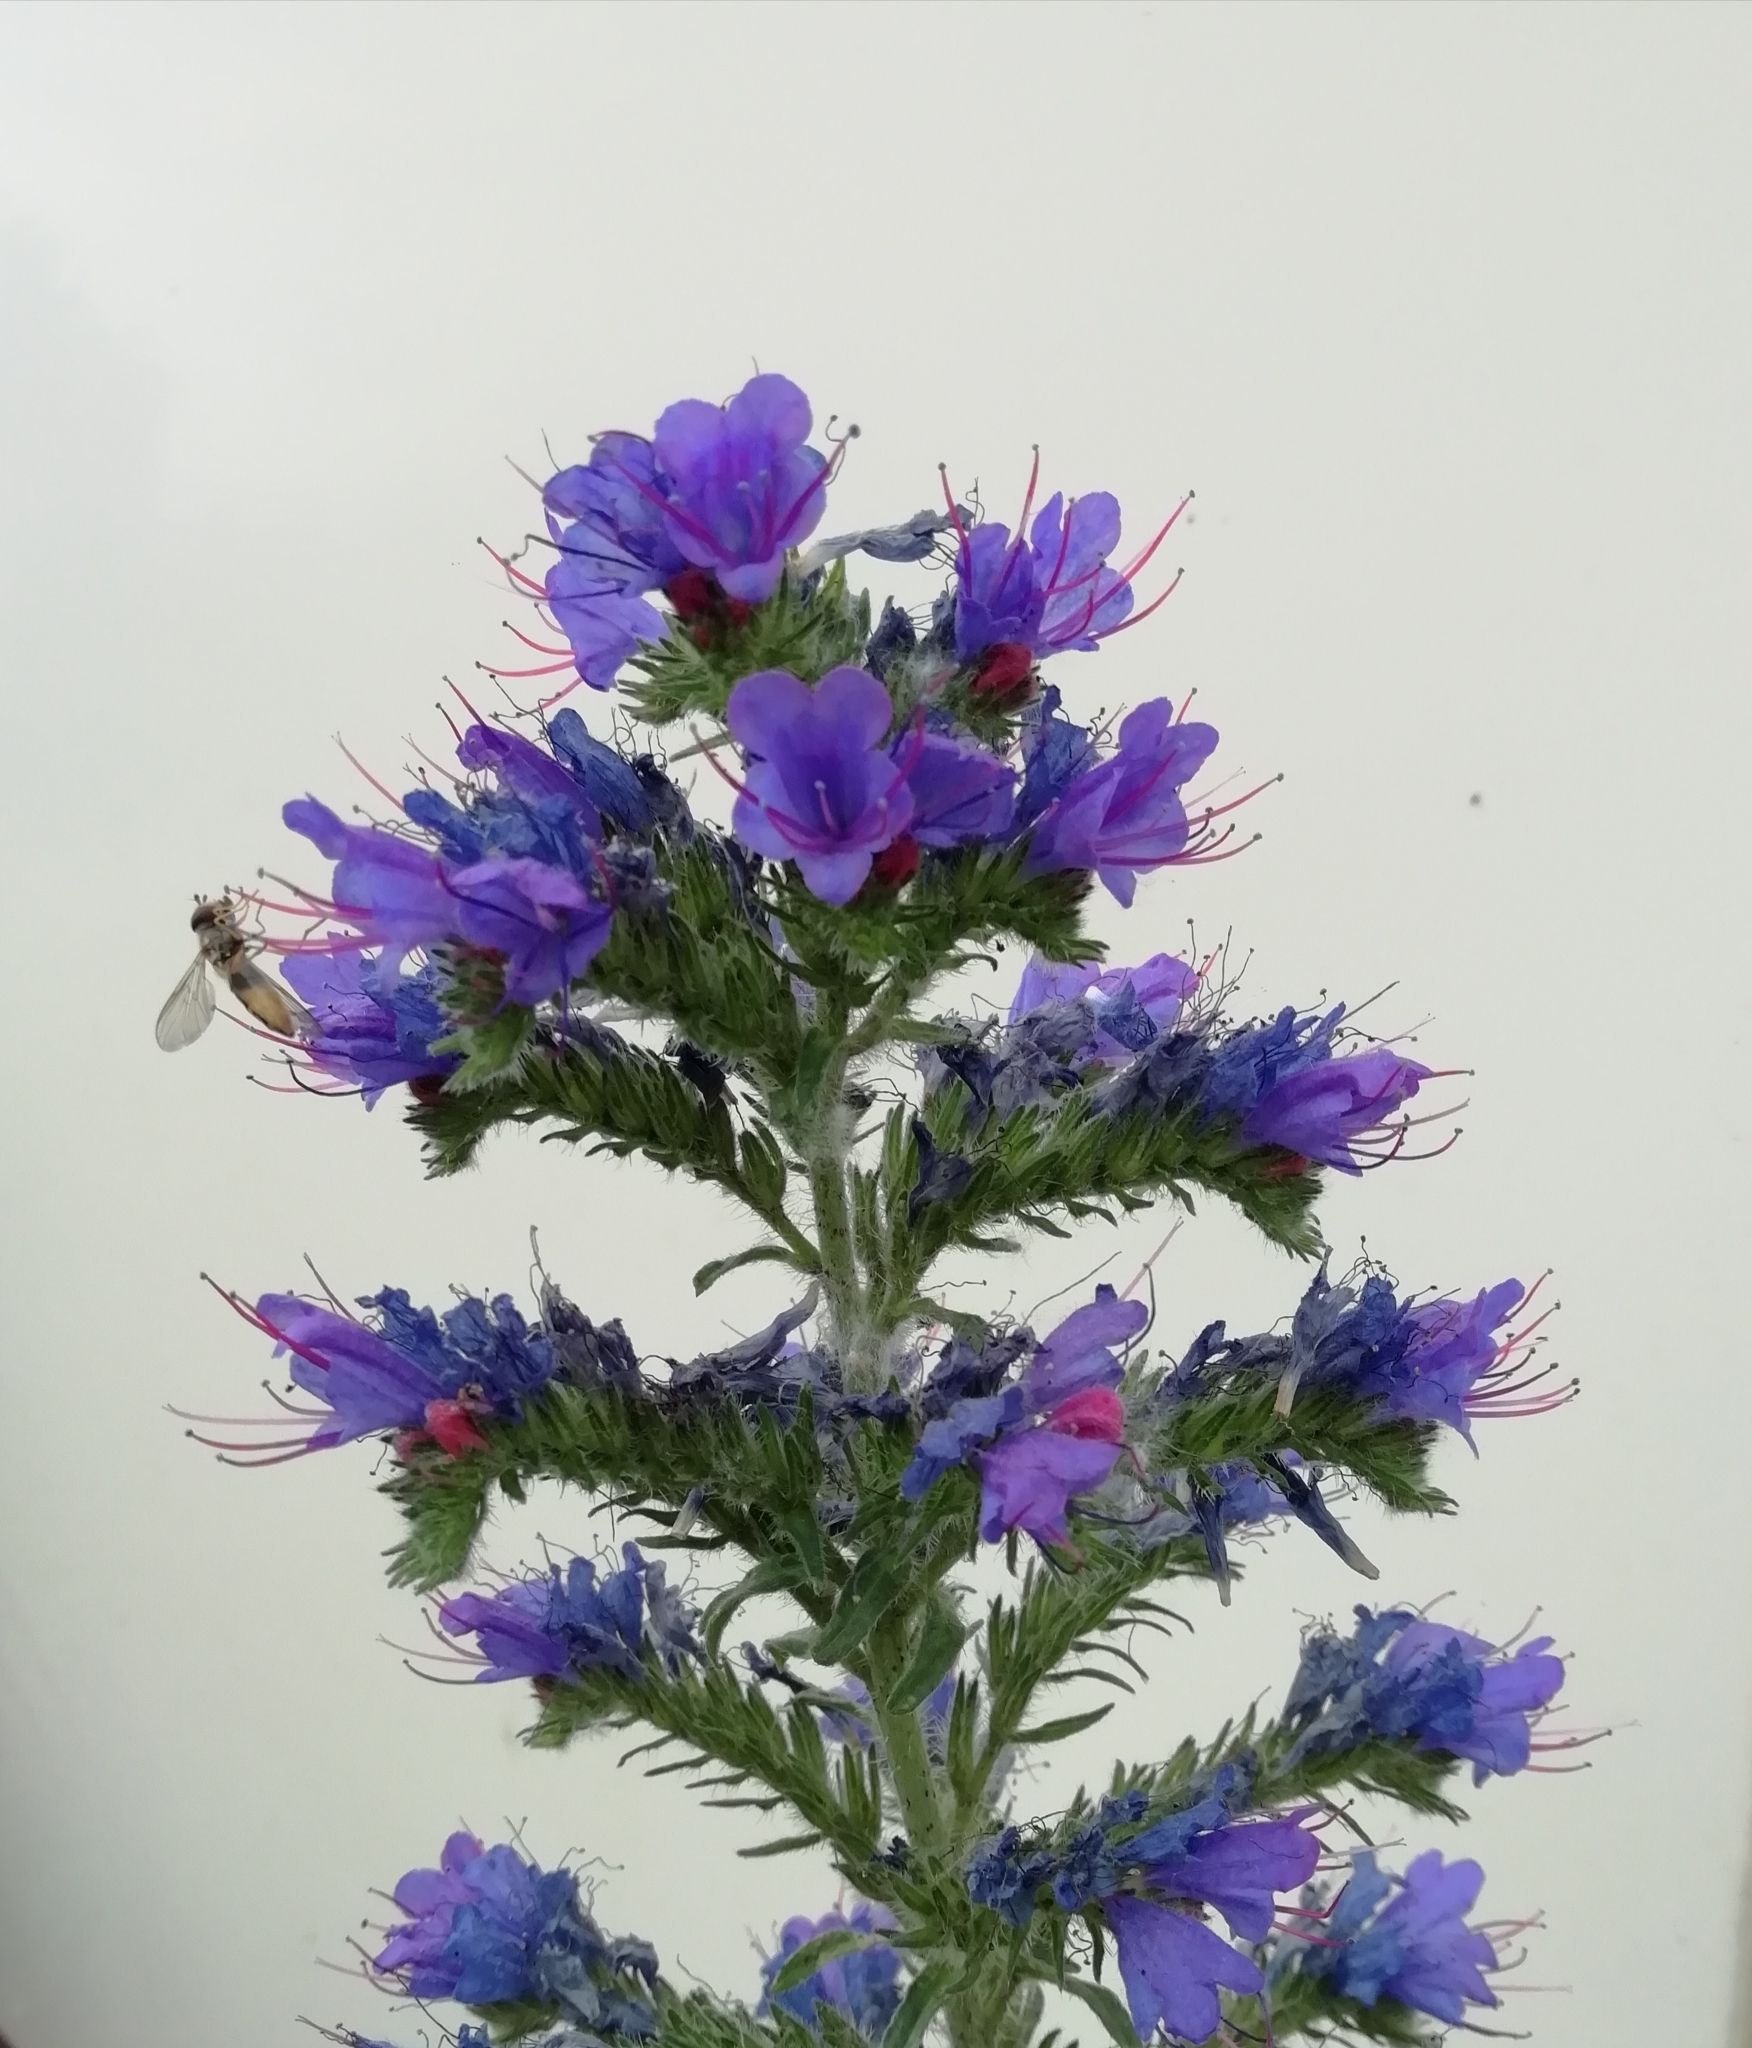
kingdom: Plantae
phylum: Tracheophyta
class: Magnoliopsida
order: Boraginales
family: Boraginaceae
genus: Echium
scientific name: Echium vulgare
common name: Common viper's bugloss
